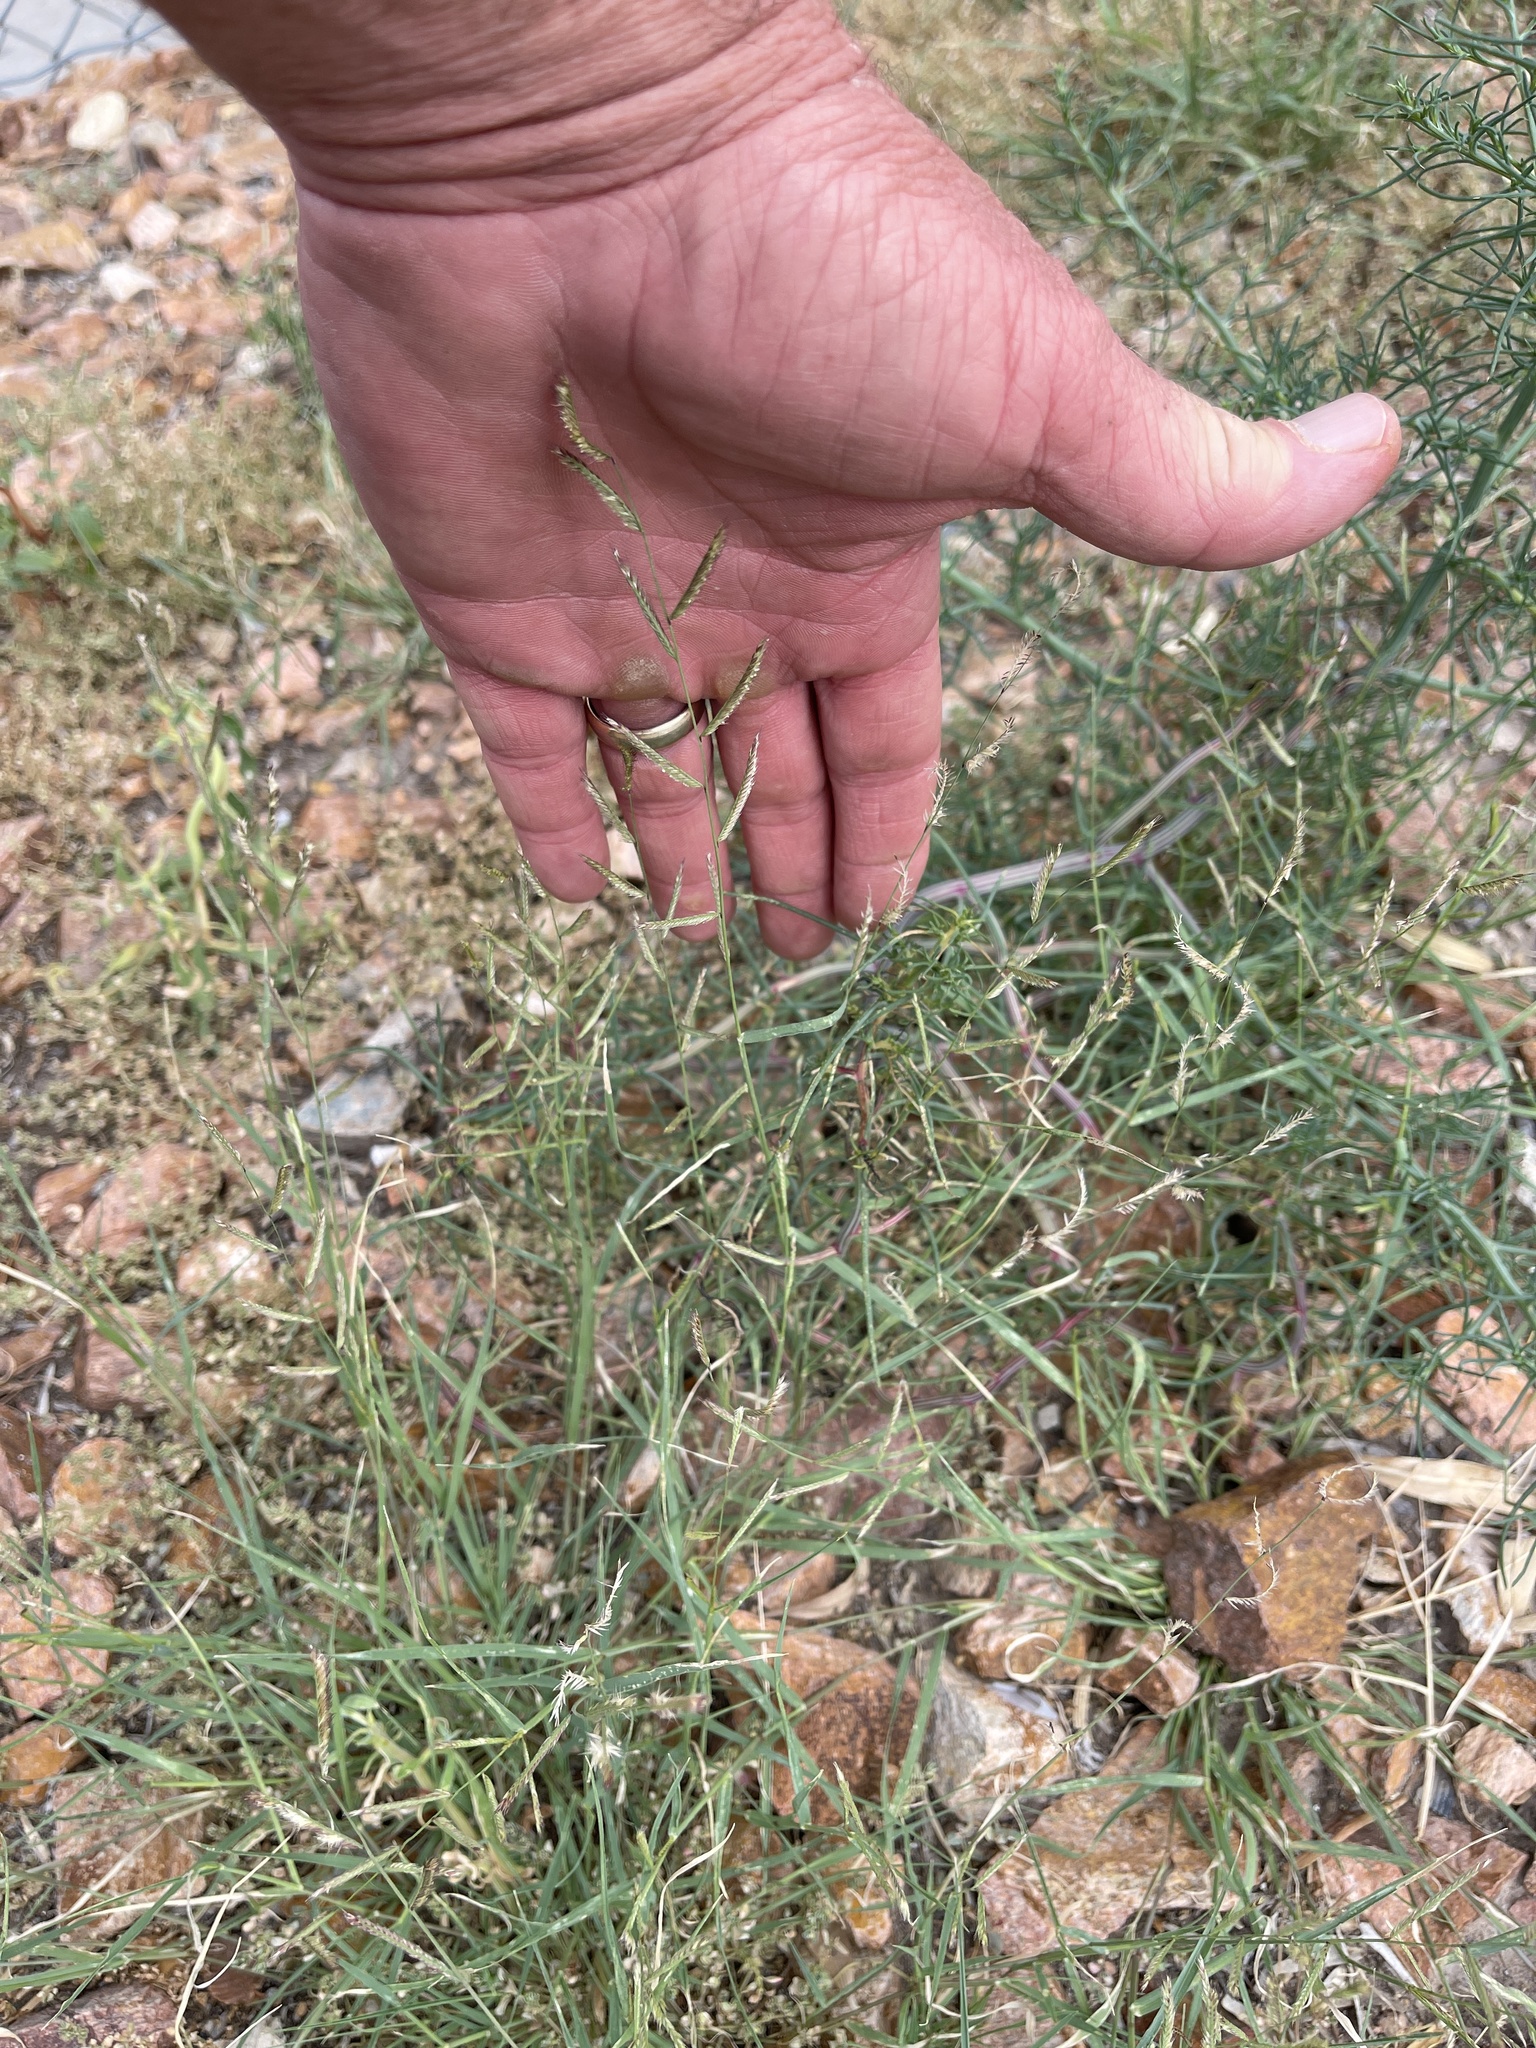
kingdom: Plantae
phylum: Tracheophyta
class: Liliopsida
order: Poales
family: Poaceae
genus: Bouteloua
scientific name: Bouteloua barbata
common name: Six-weeks grama
